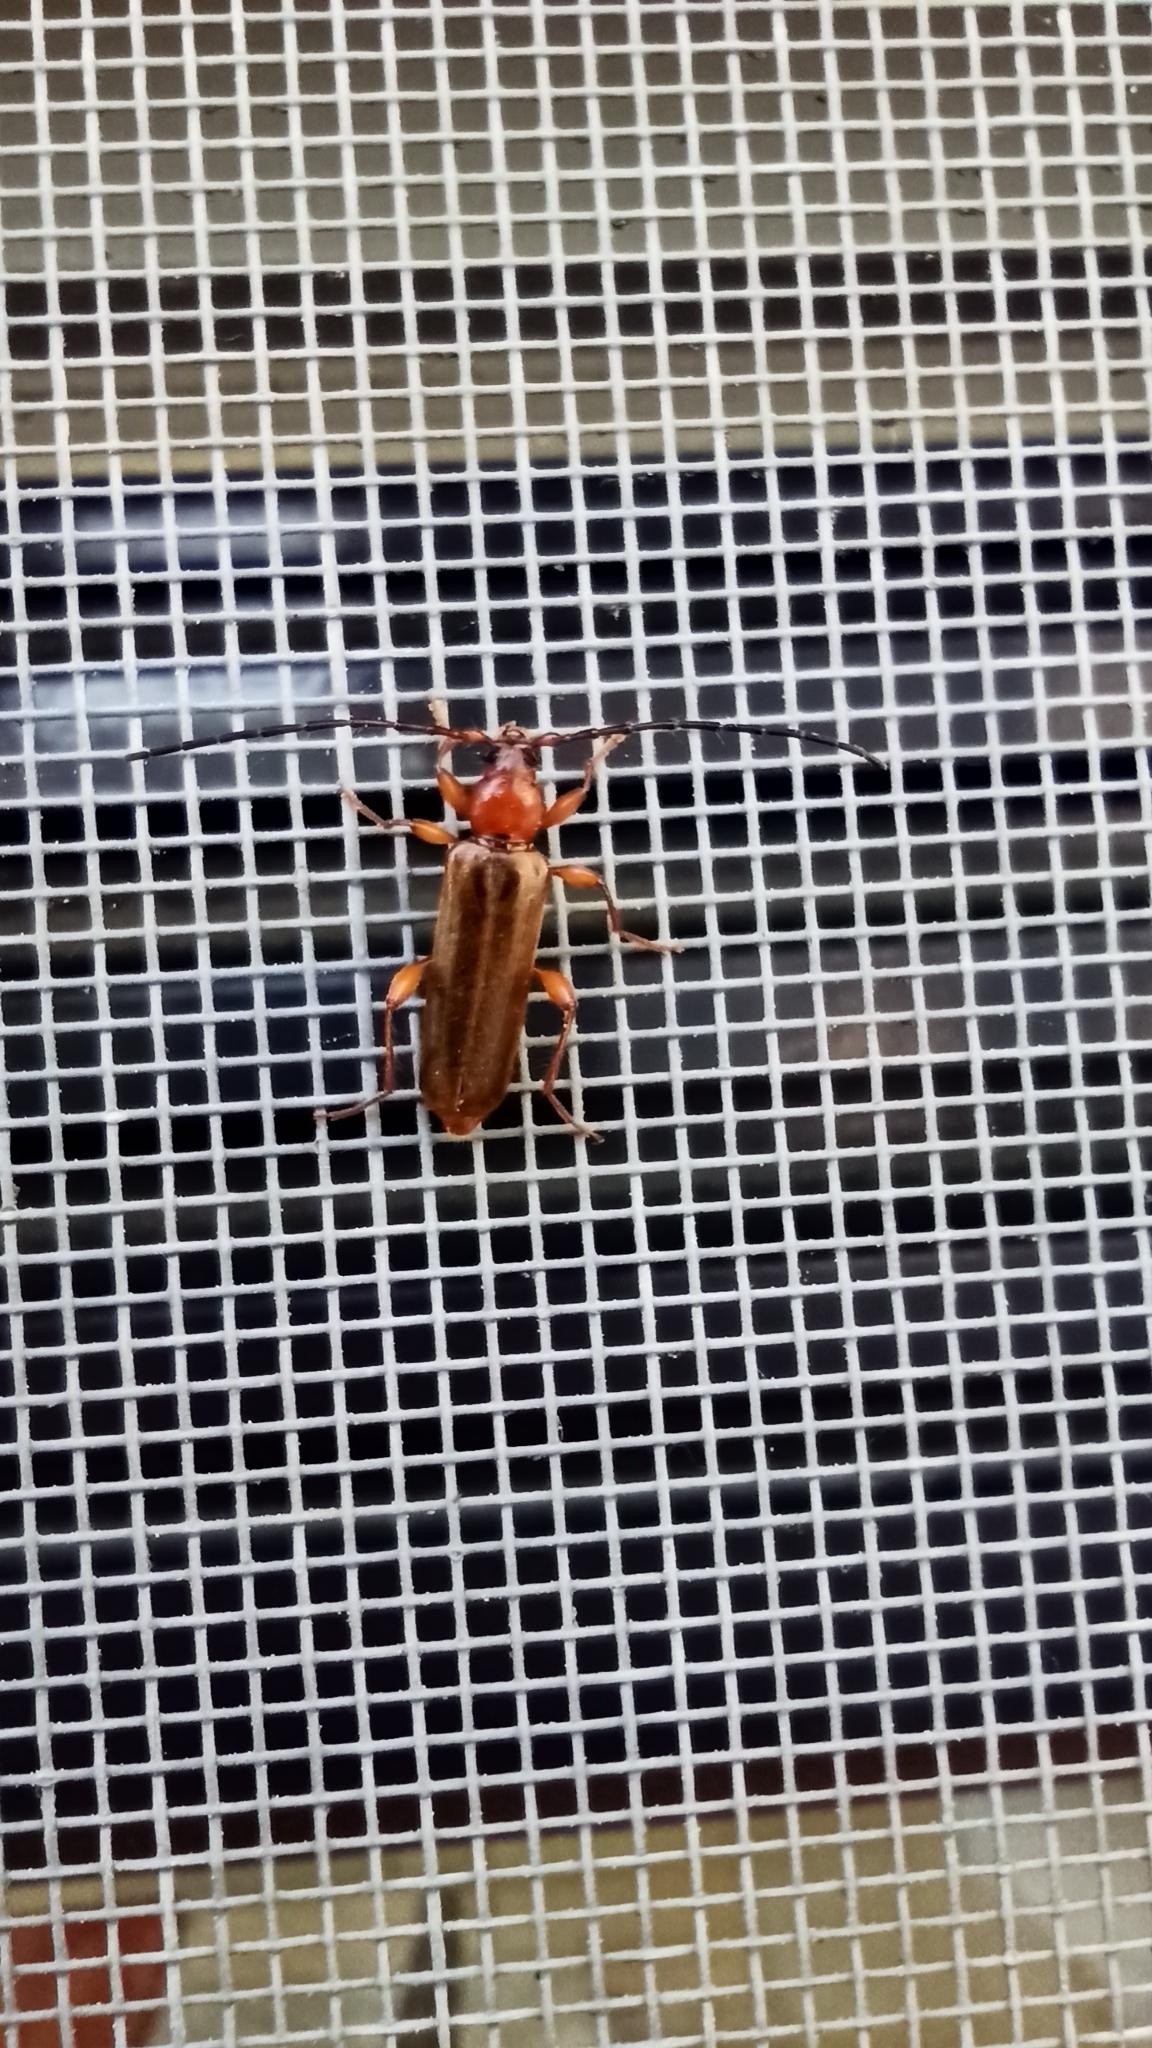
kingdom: Animalia
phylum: Arthropoda
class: Insecta
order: Coleoptera
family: Cerambycidae
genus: Phymatodes
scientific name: Phymatodes testaceus
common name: Long-horned beetle
